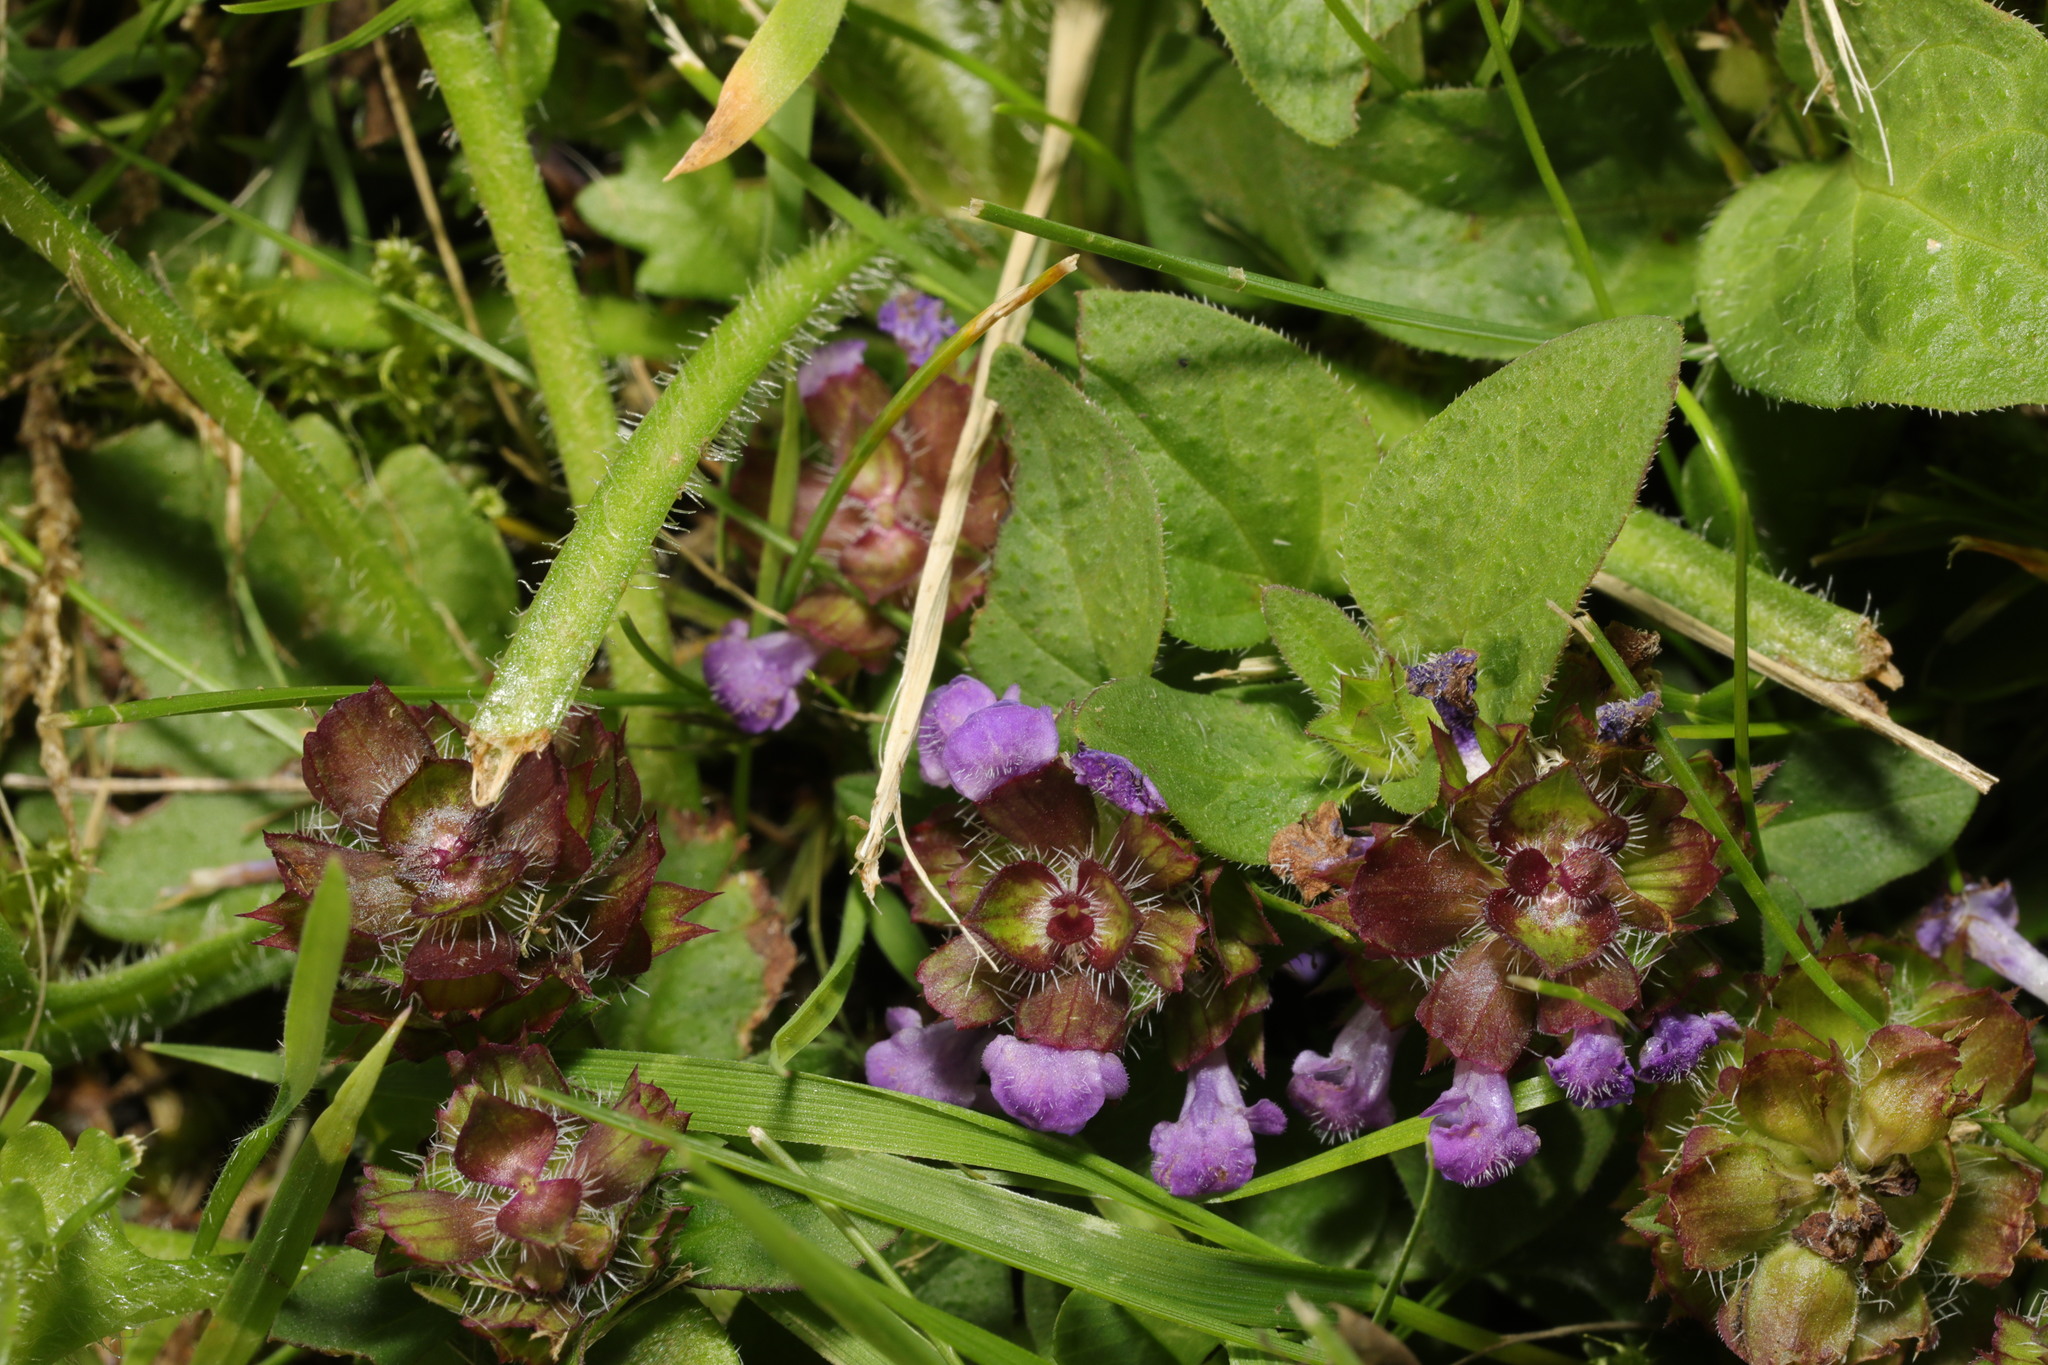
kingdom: Plantae
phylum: Tracheophyta
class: Magnoliopsida
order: Lamiales
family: Lamiaceae
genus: Prunella
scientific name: Prunella vulgaris
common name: Heal-all
